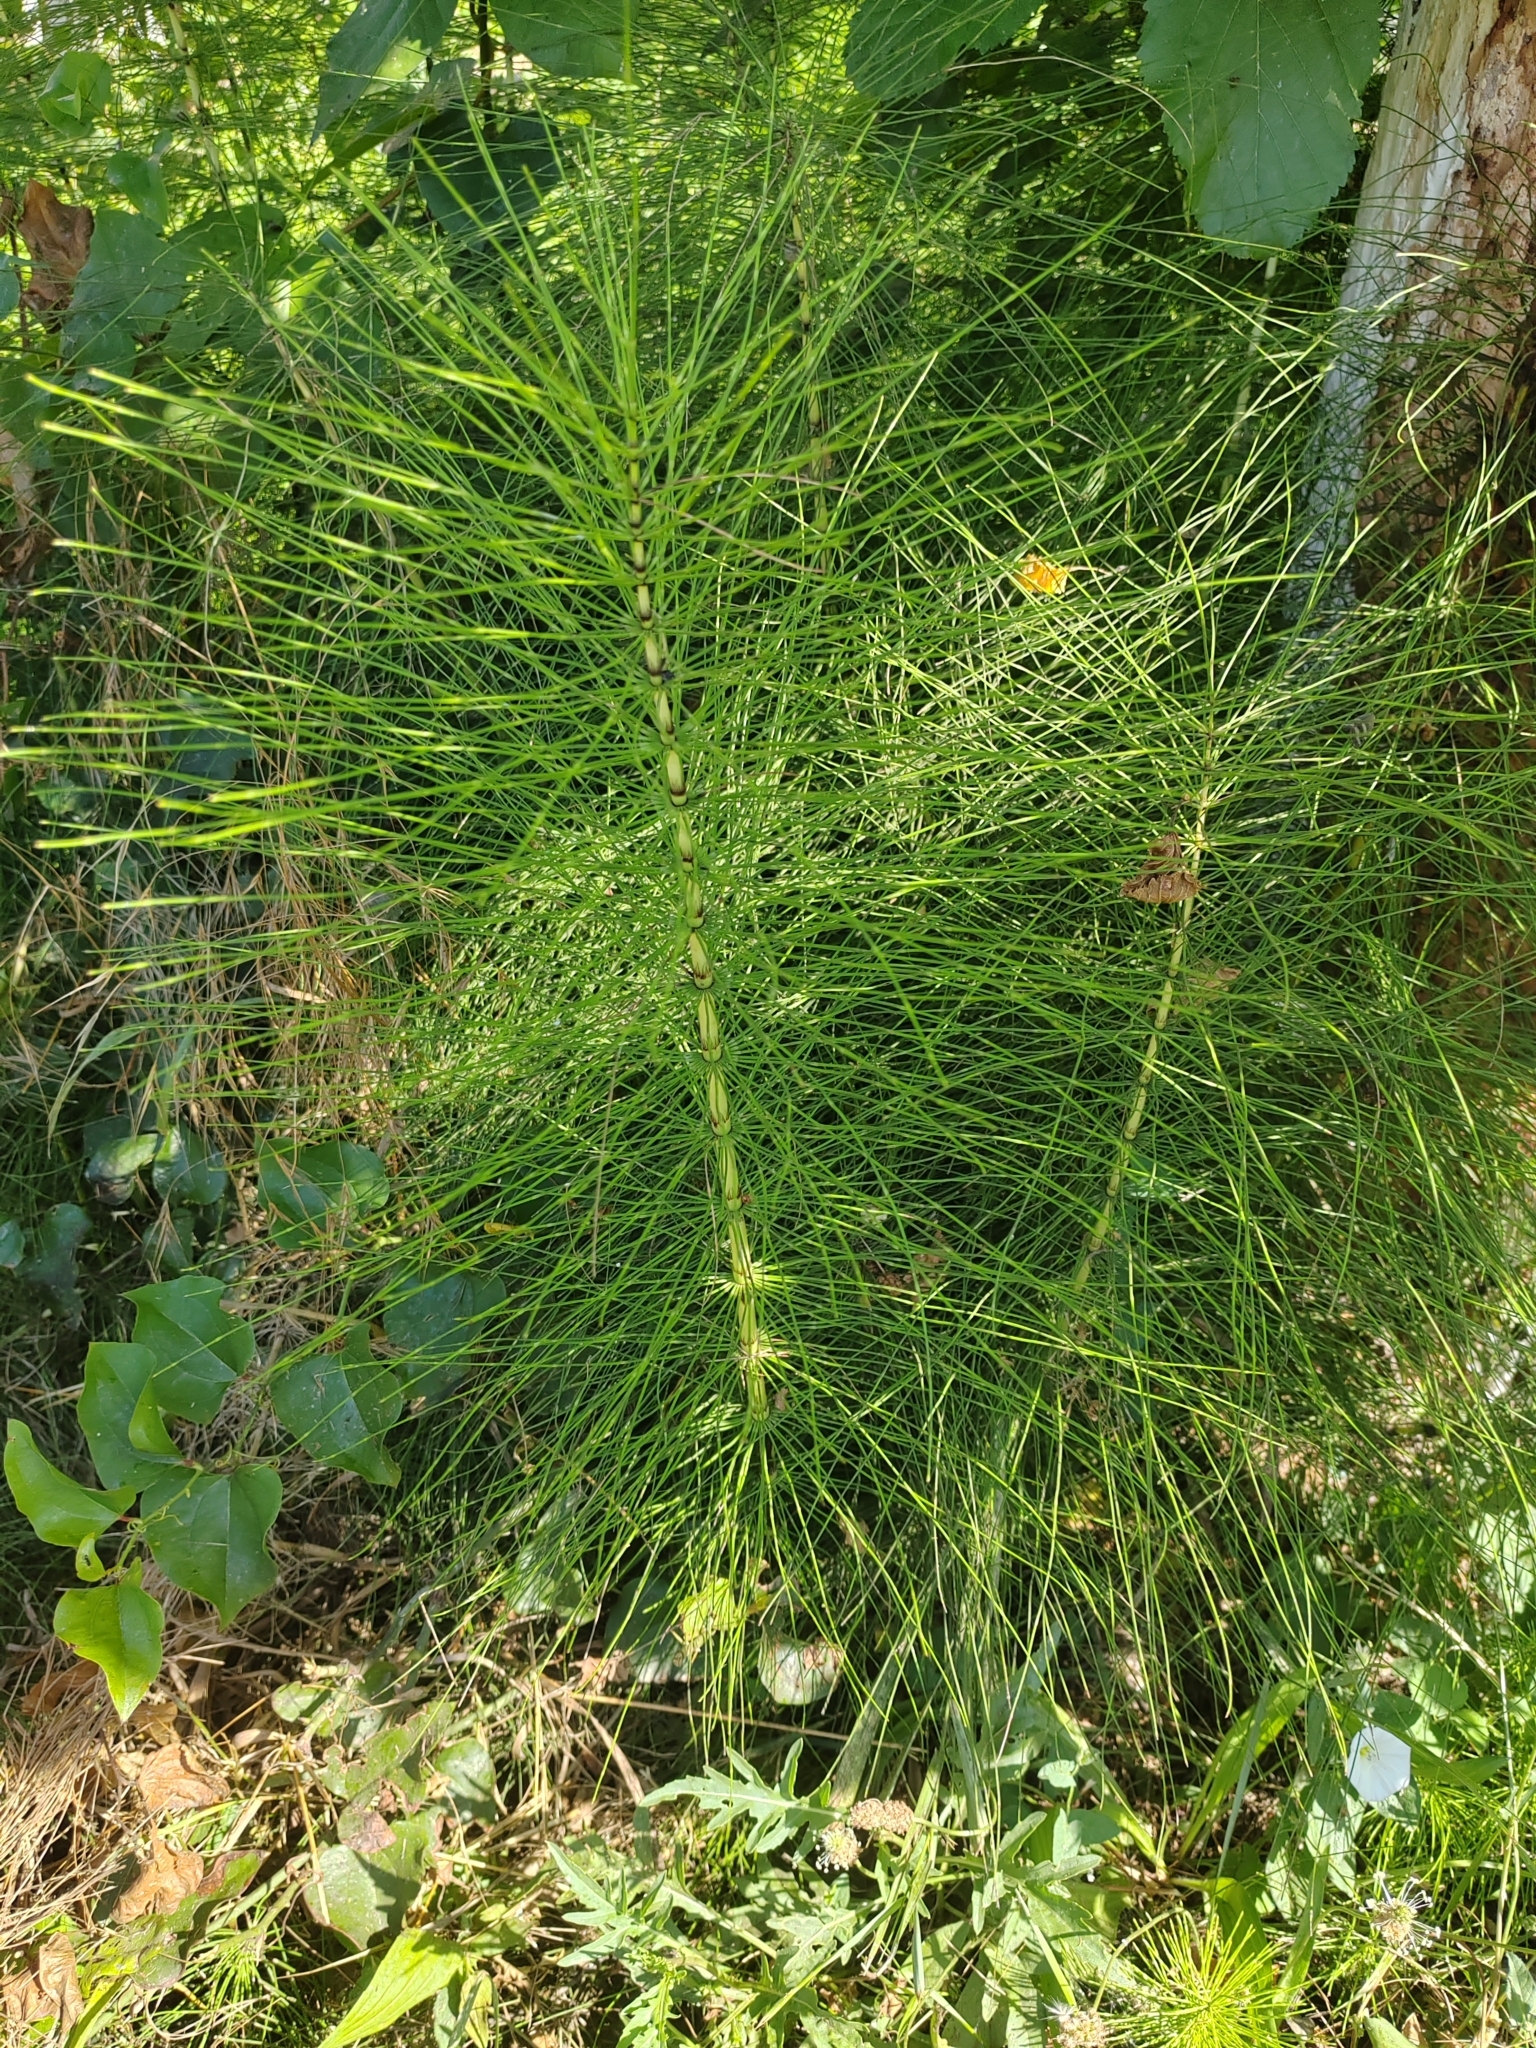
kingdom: Plantae
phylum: Tracheophyta
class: Polypodiopsida
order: Equisetales
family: Equisetaceae
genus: Equisetum
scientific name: Equisetum telmateia
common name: Great horsetail
